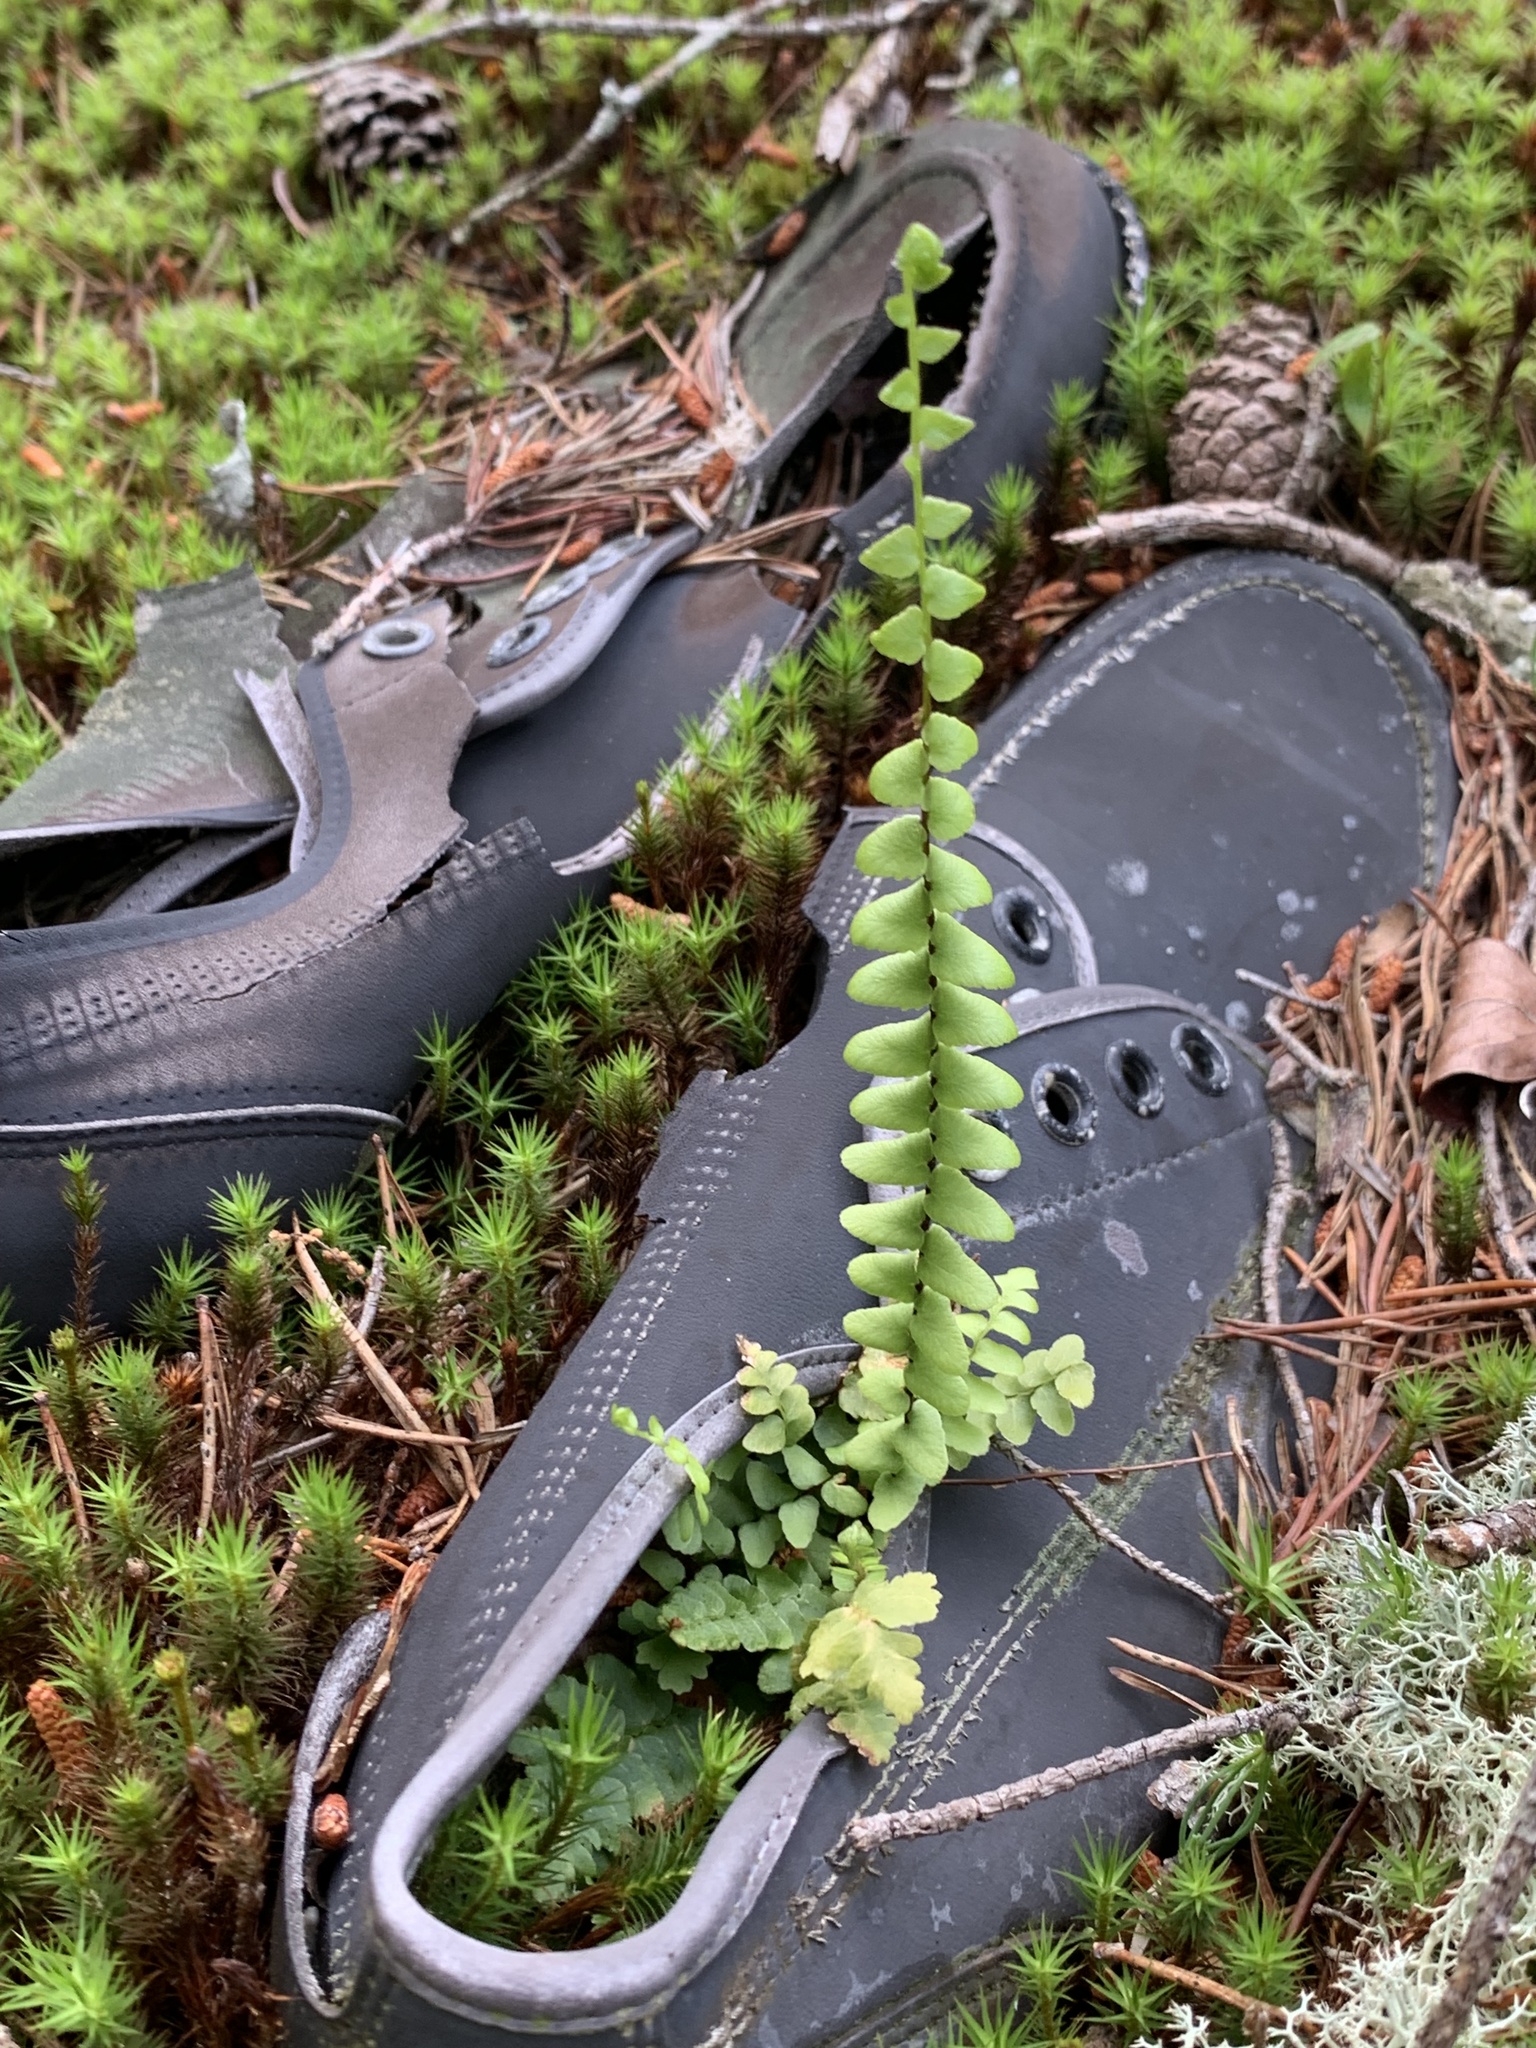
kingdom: Plantae
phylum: Tracheophyta
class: Polypodiopsida
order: Polypodiales
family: Aspleniaceae
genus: Asplenium
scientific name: Asplenium platyneuron
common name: Ebony spleenwort
